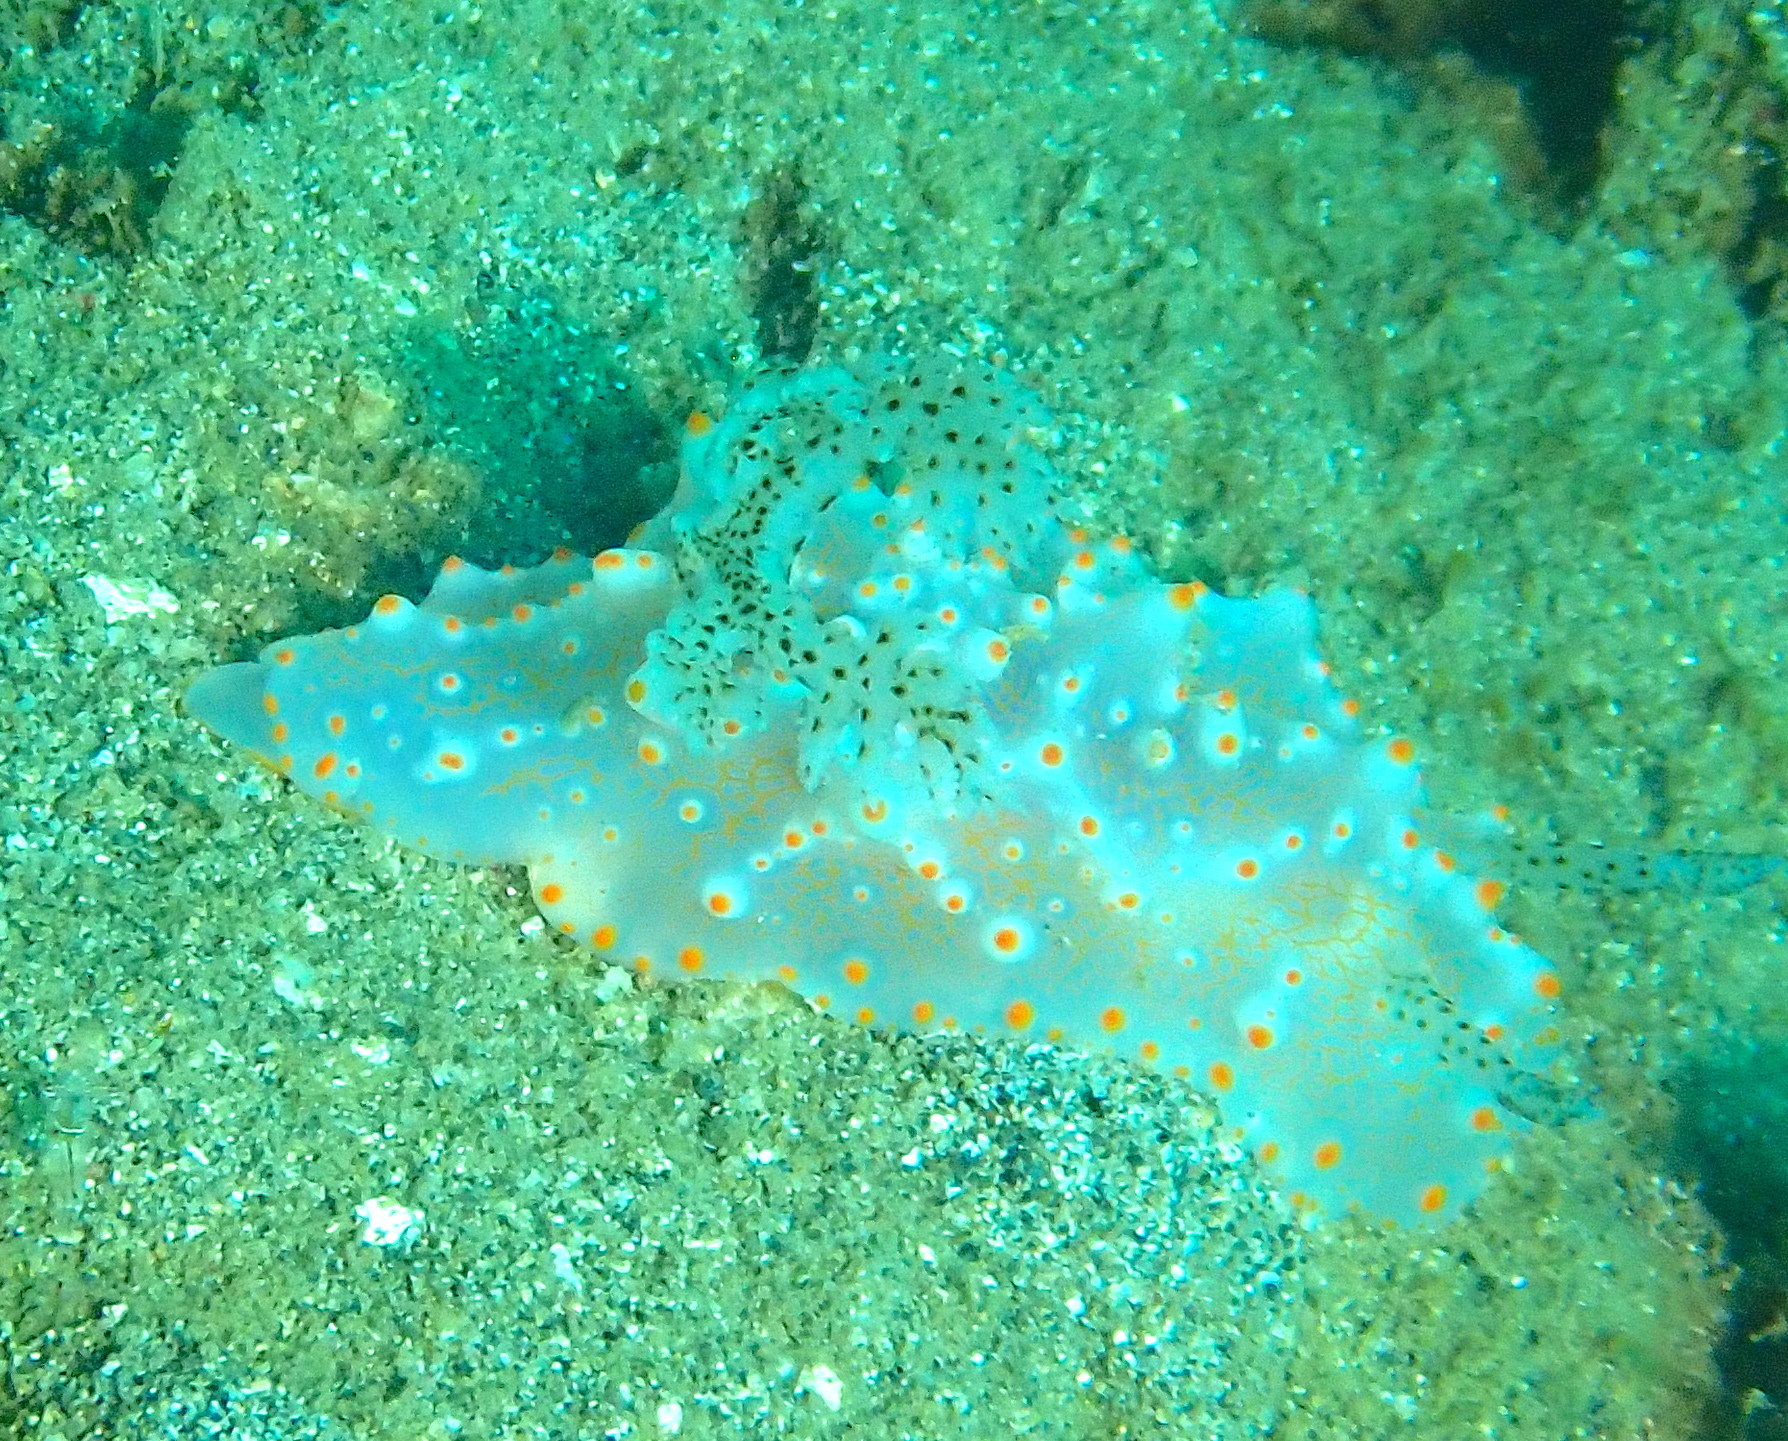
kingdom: Animalia
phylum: Mollusca
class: Gastropoda
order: Nudibranchia
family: Discodorididae
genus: Halgerda
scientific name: Halgerda batangas
